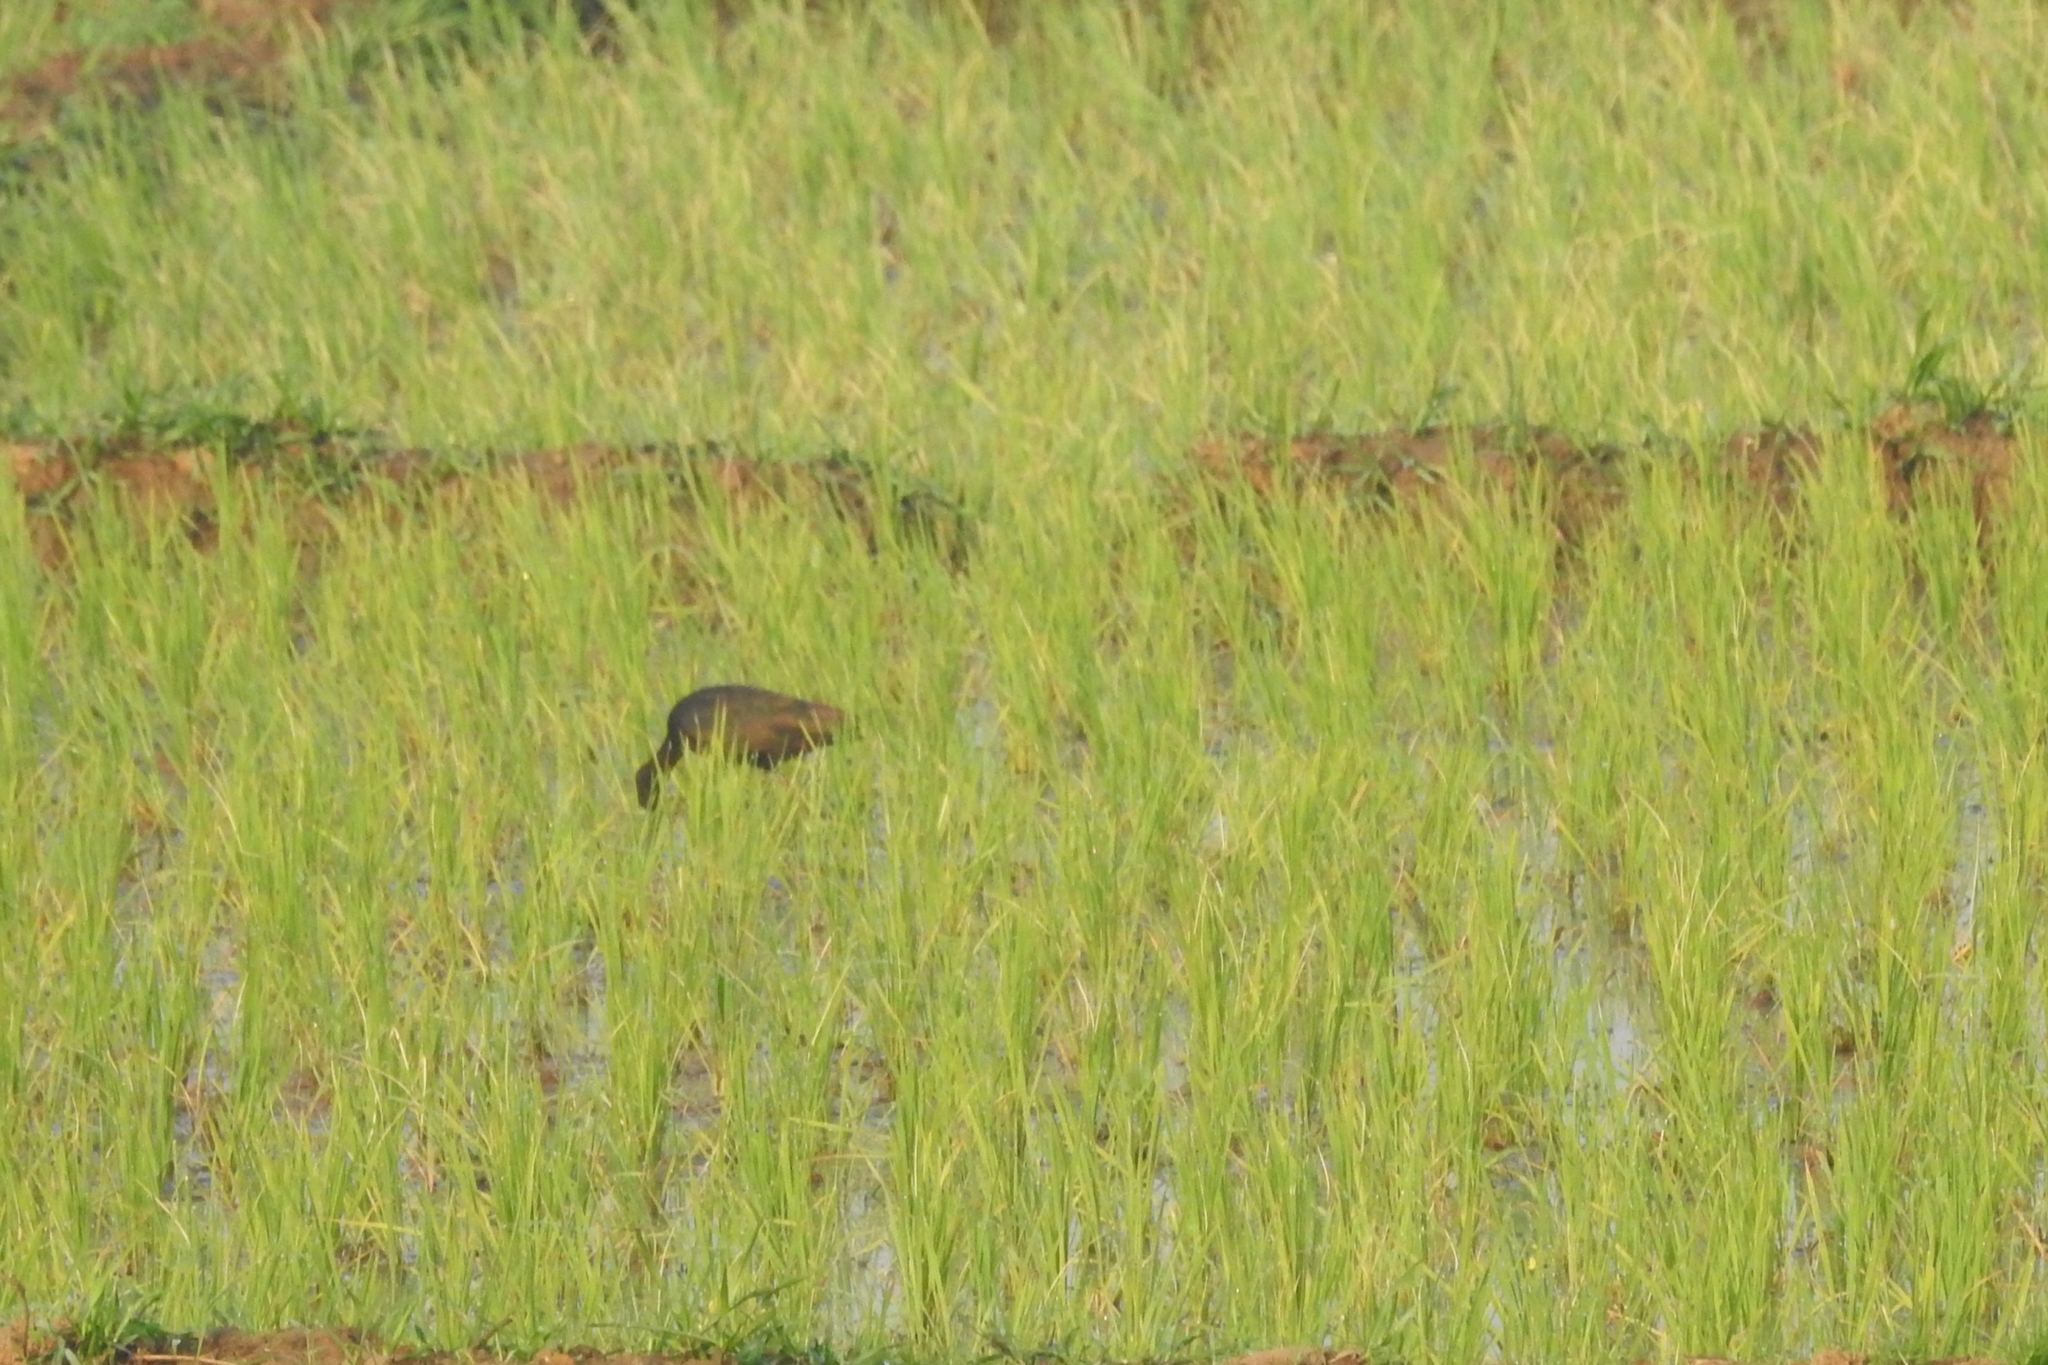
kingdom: Animalia
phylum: Chordata
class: Aves
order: Pelecaniformes
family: Threskiornithidae
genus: Plegadis
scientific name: Plegadis falcinellus
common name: Glossy ibis
